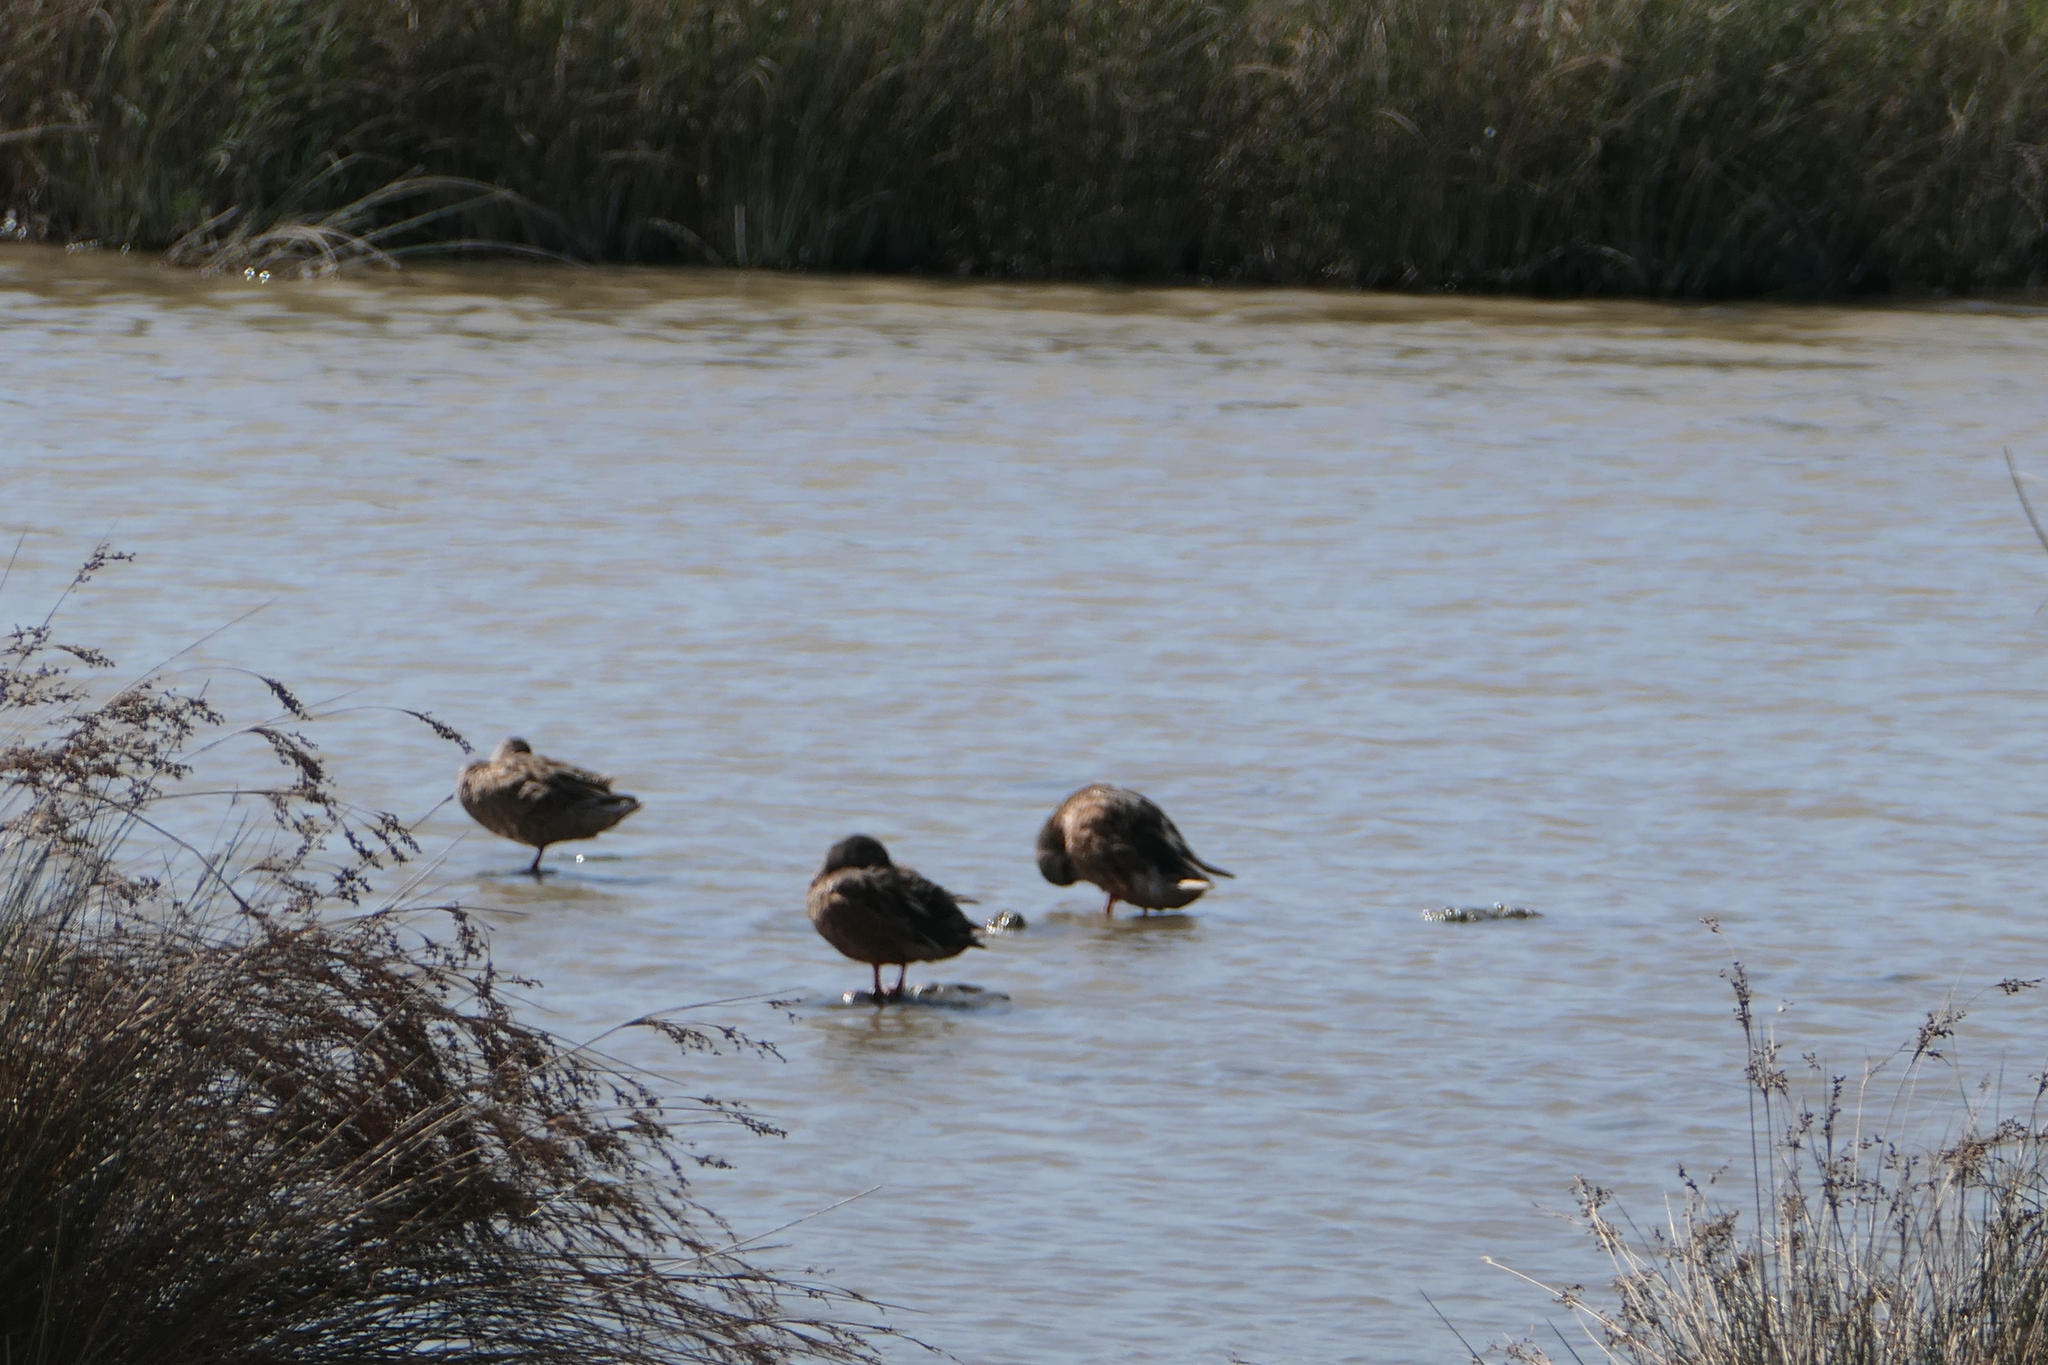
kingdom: Animalia
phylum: Chordata
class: Aves
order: Anseriformes
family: Anatidae
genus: Anas
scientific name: Anas platyrhynchos
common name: Mallard
